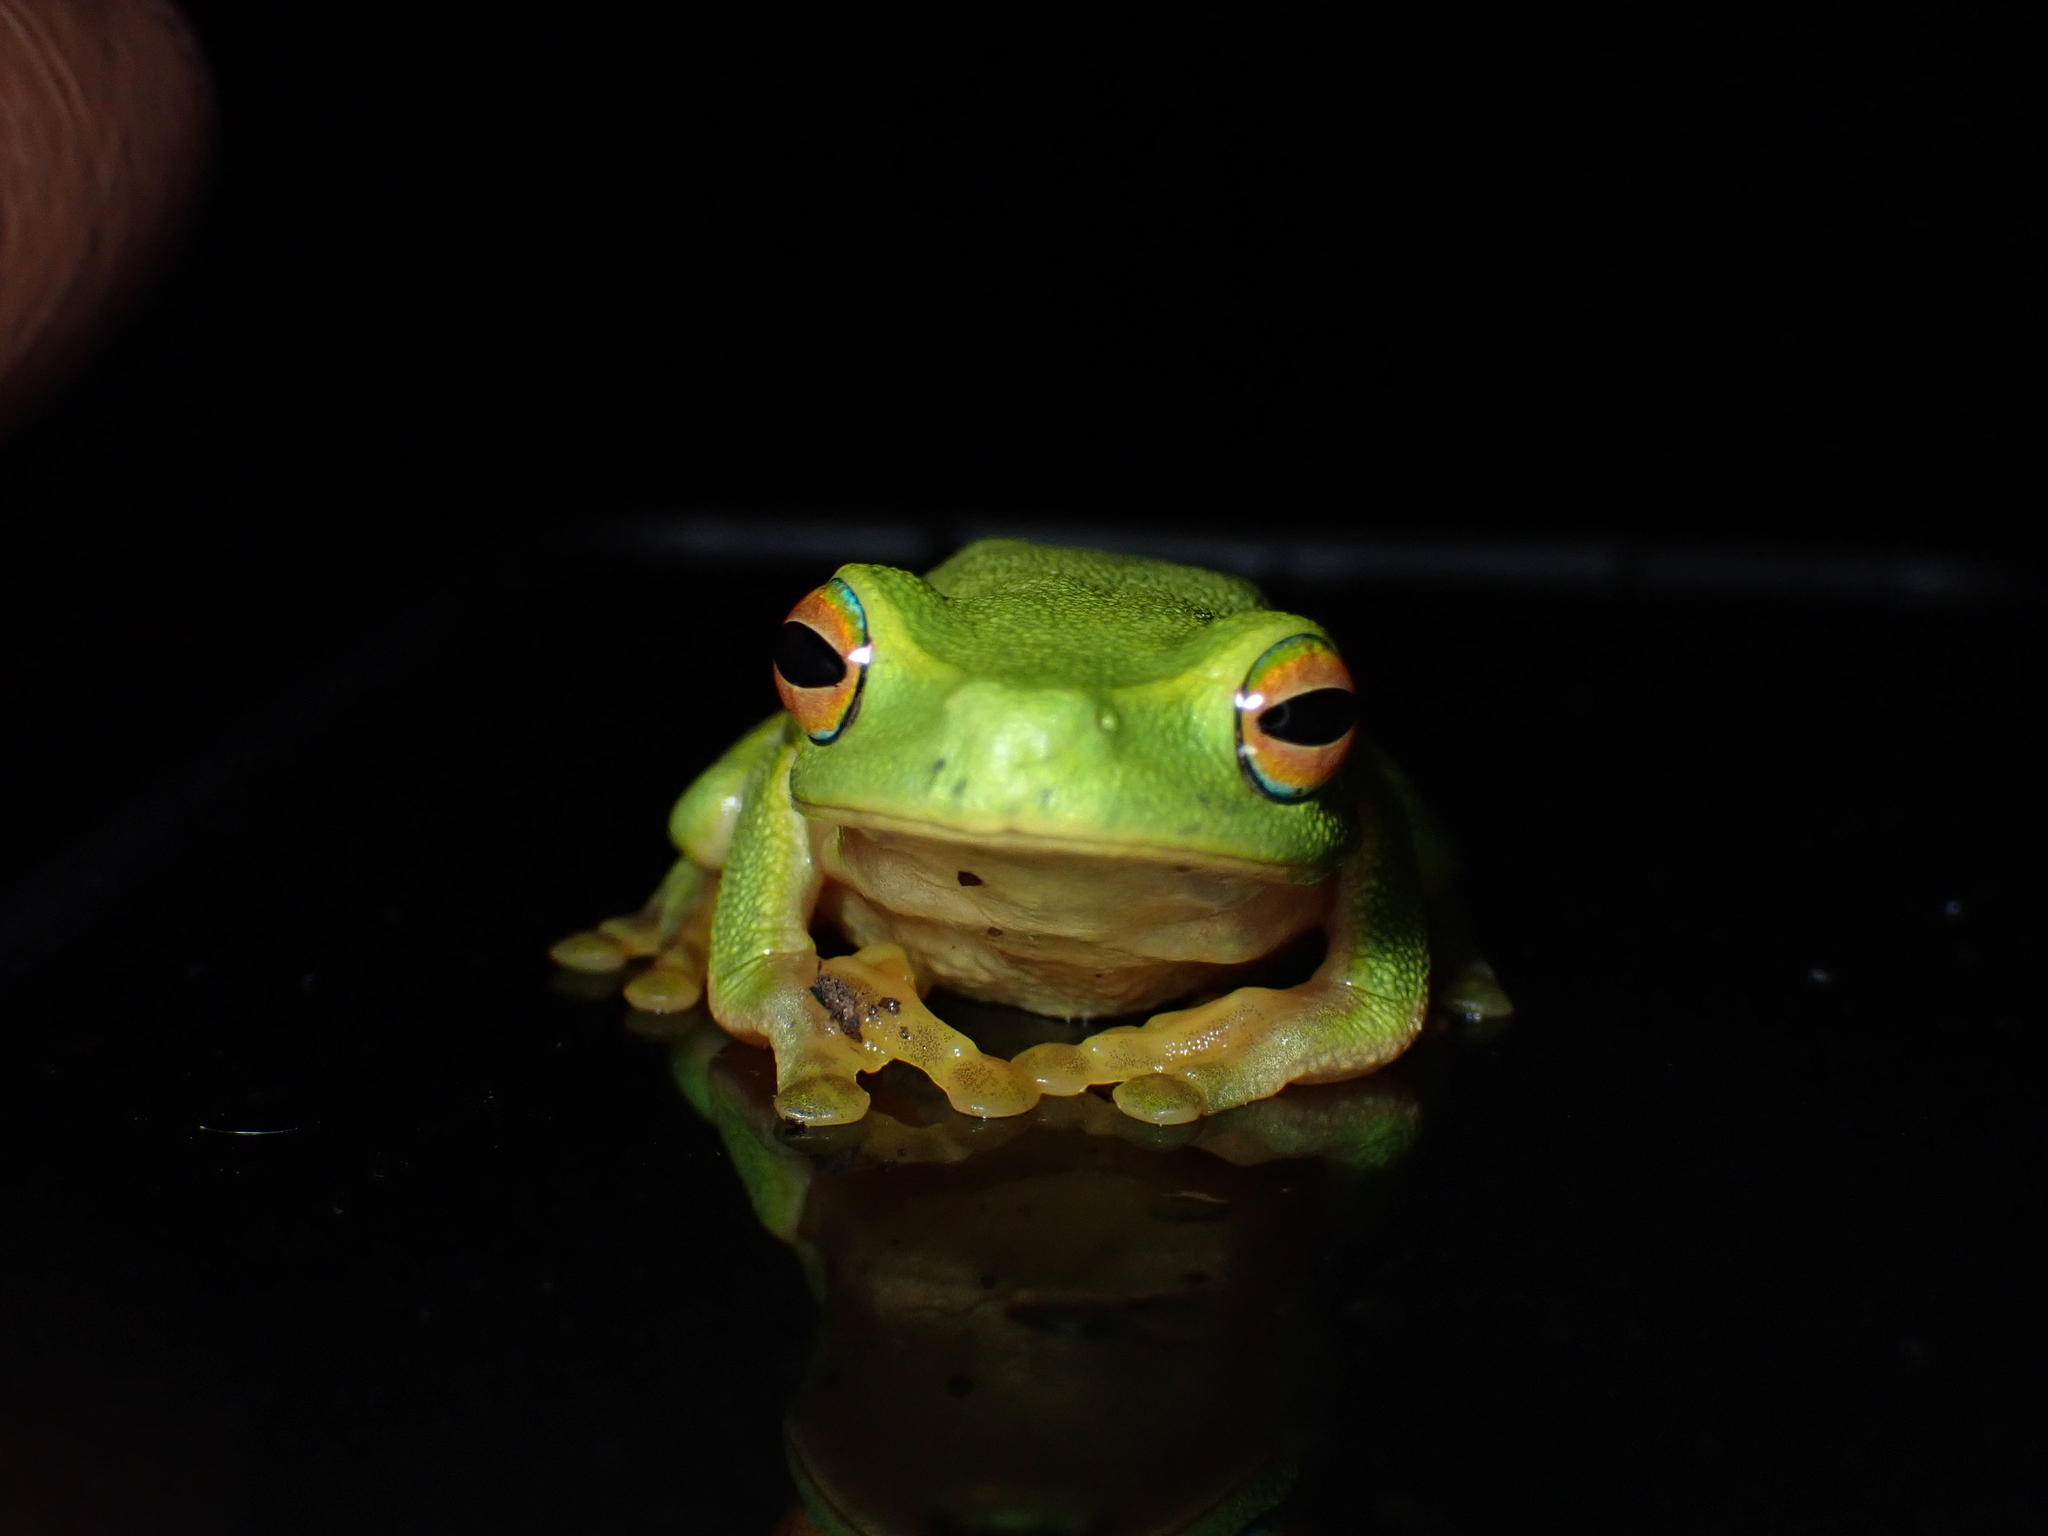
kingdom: Animalia
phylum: Chordata
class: Amphibia
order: Anura
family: Pelodryadidae
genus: Ranoidea
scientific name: Ranoidea gracilenta
